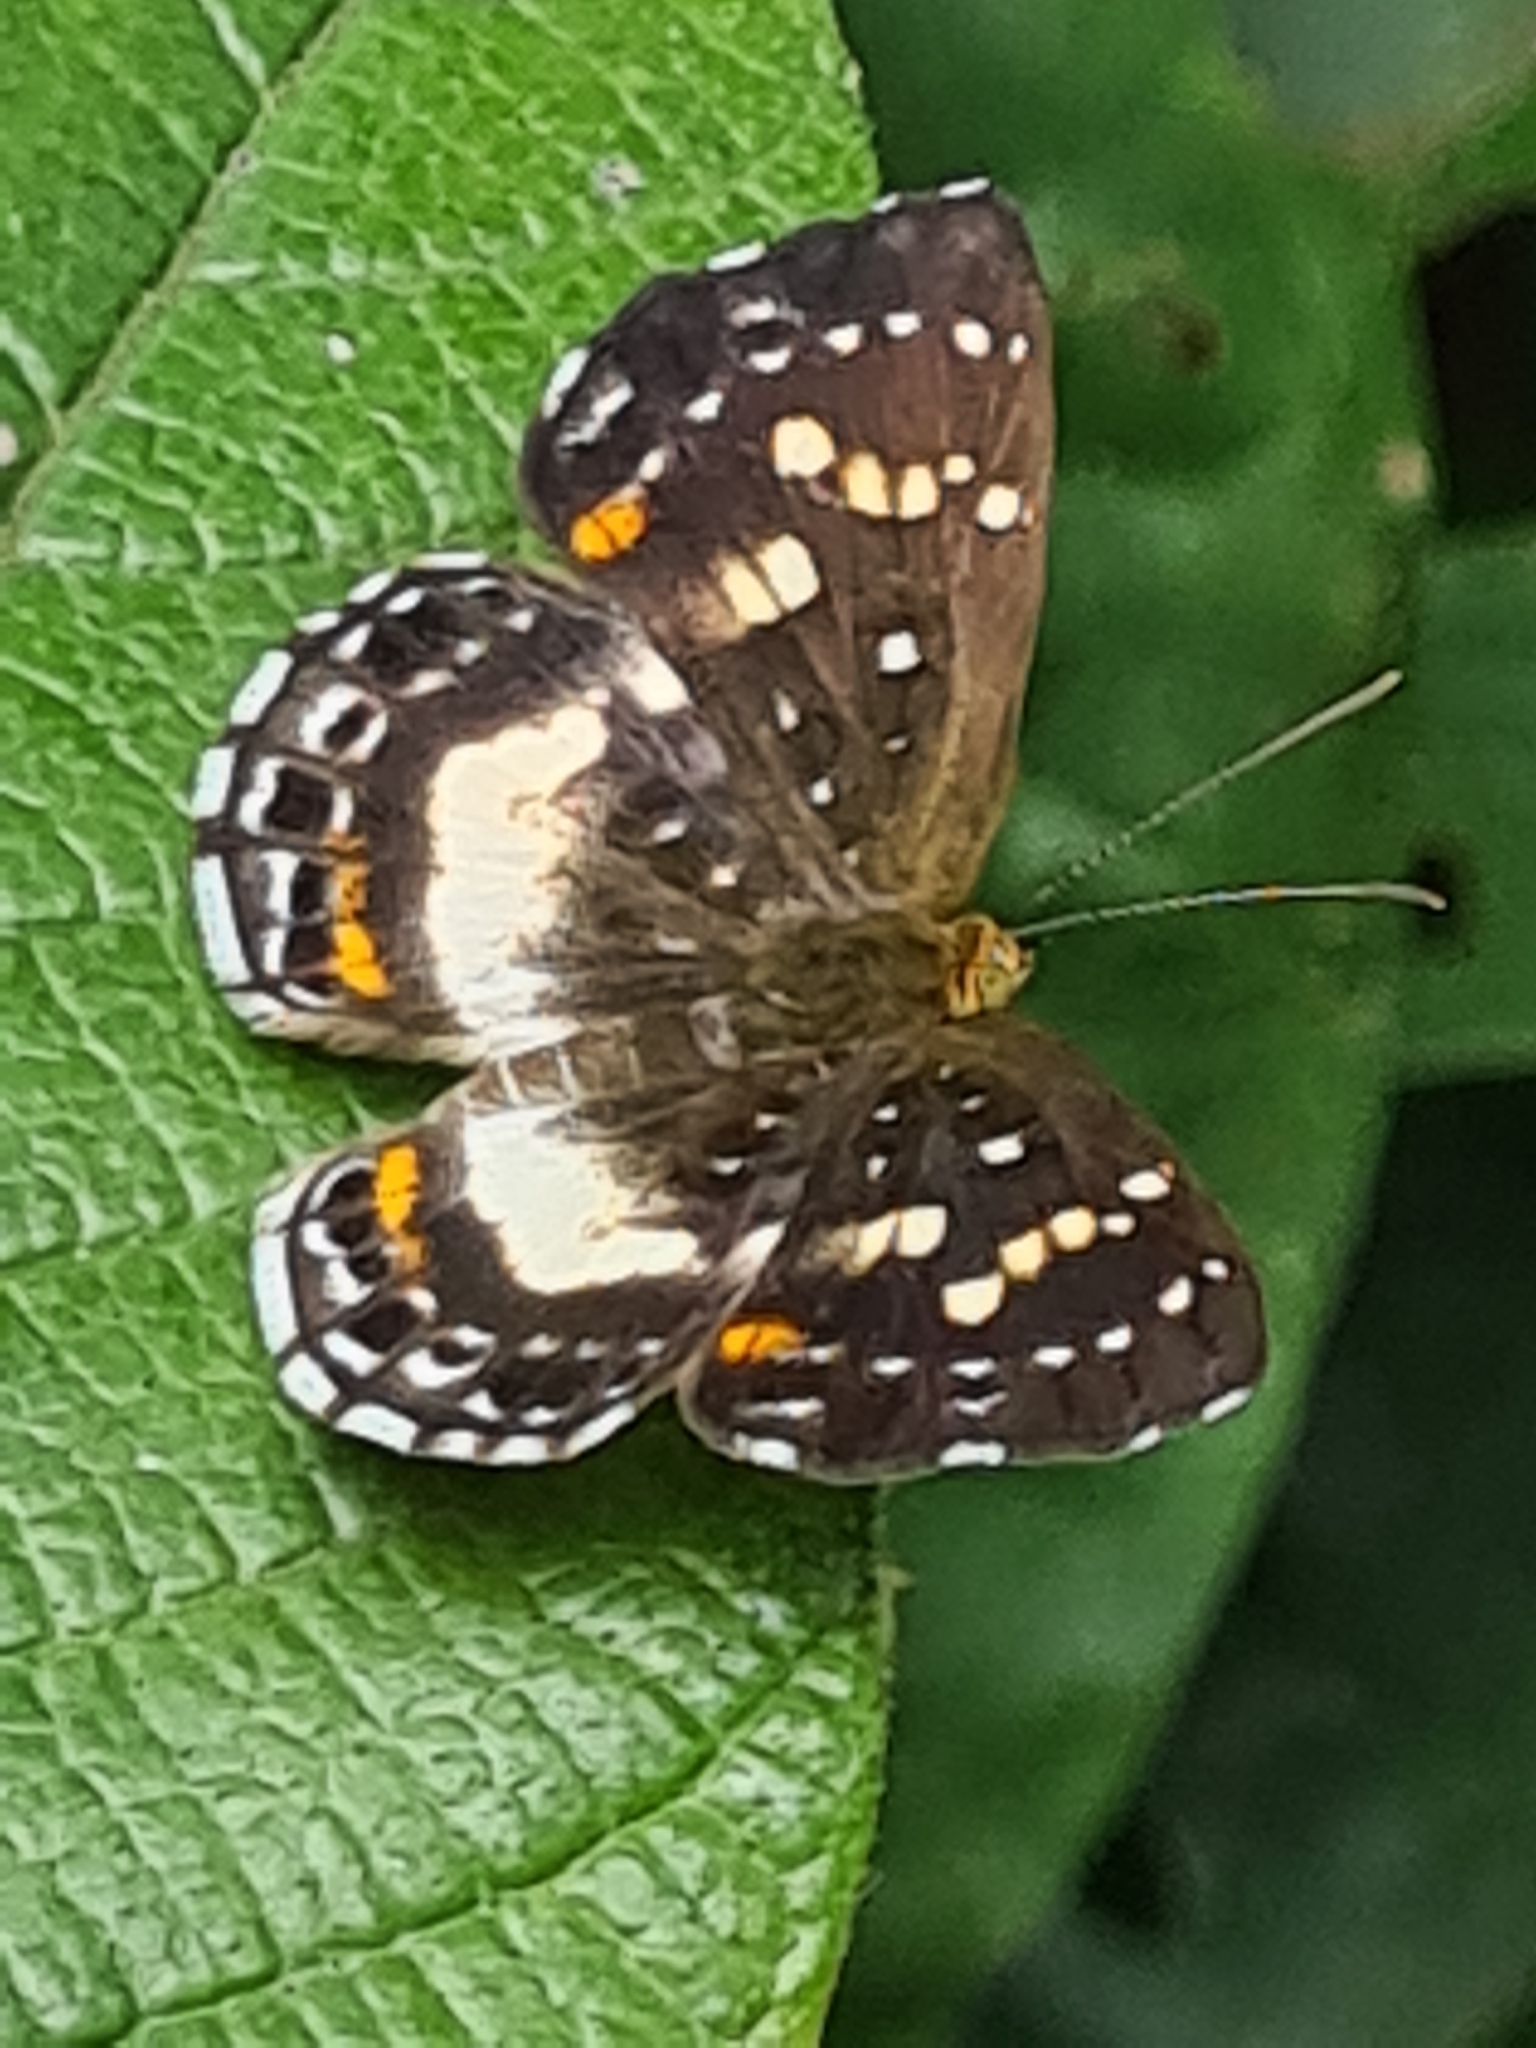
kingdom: Animalia
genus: Lemonias
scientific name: Lemonias zygia
